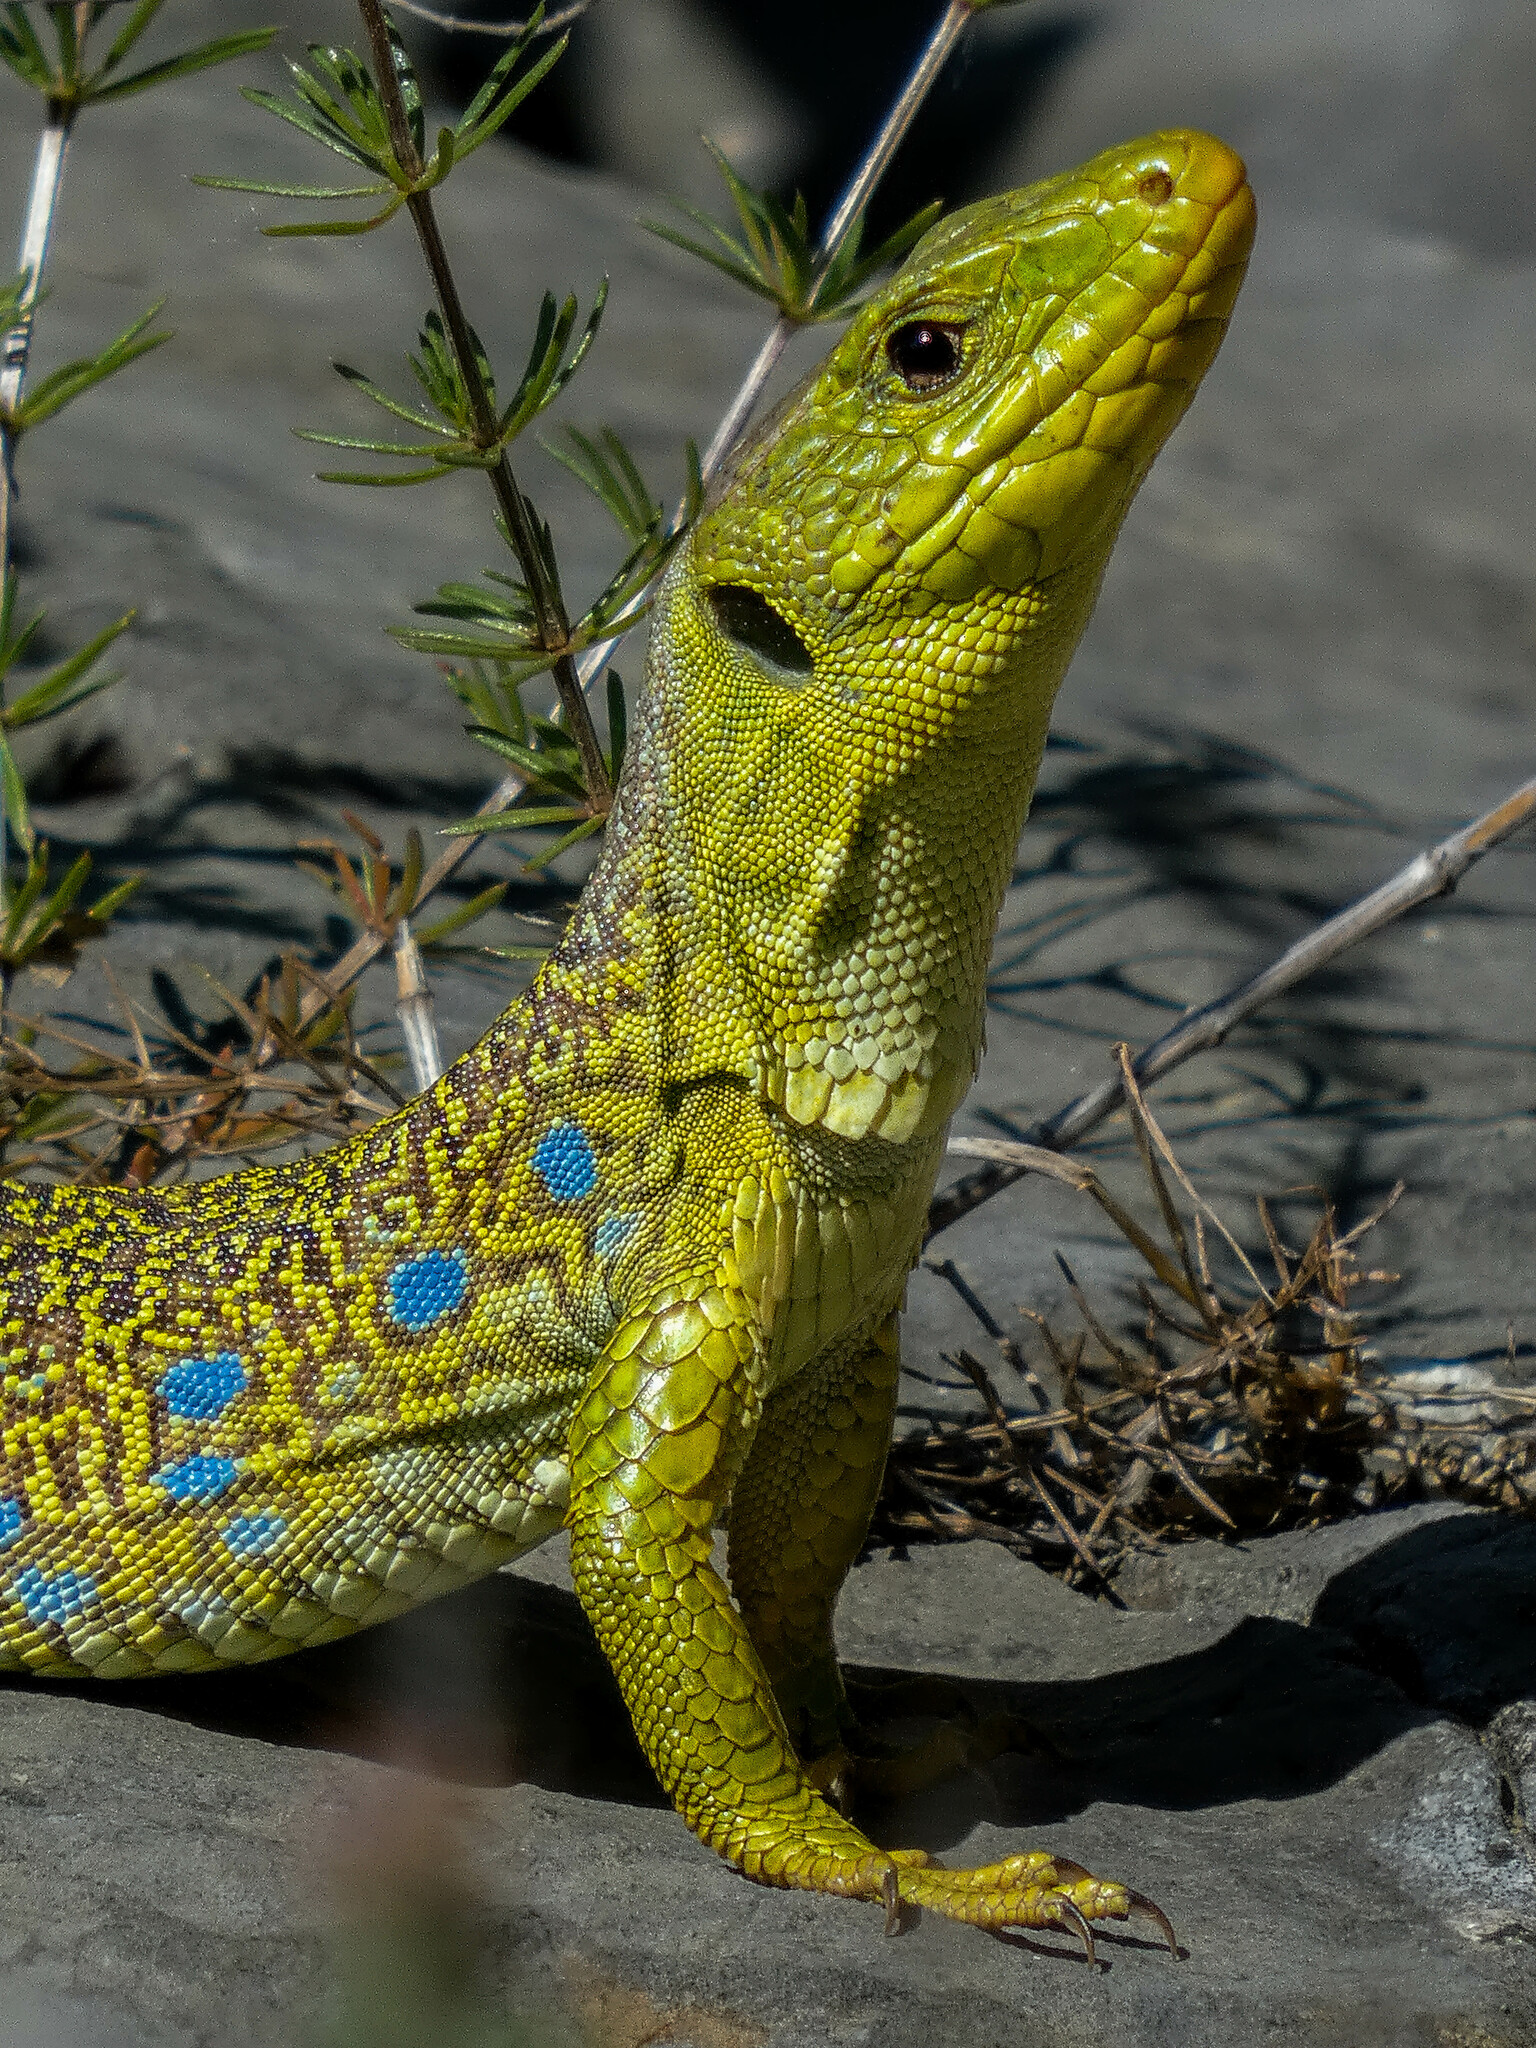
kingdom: Animalia
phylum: Chordata
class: Squamata
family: Lacertidae
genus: Timon
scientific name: Timon lepidus
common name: Ocellated lizard
